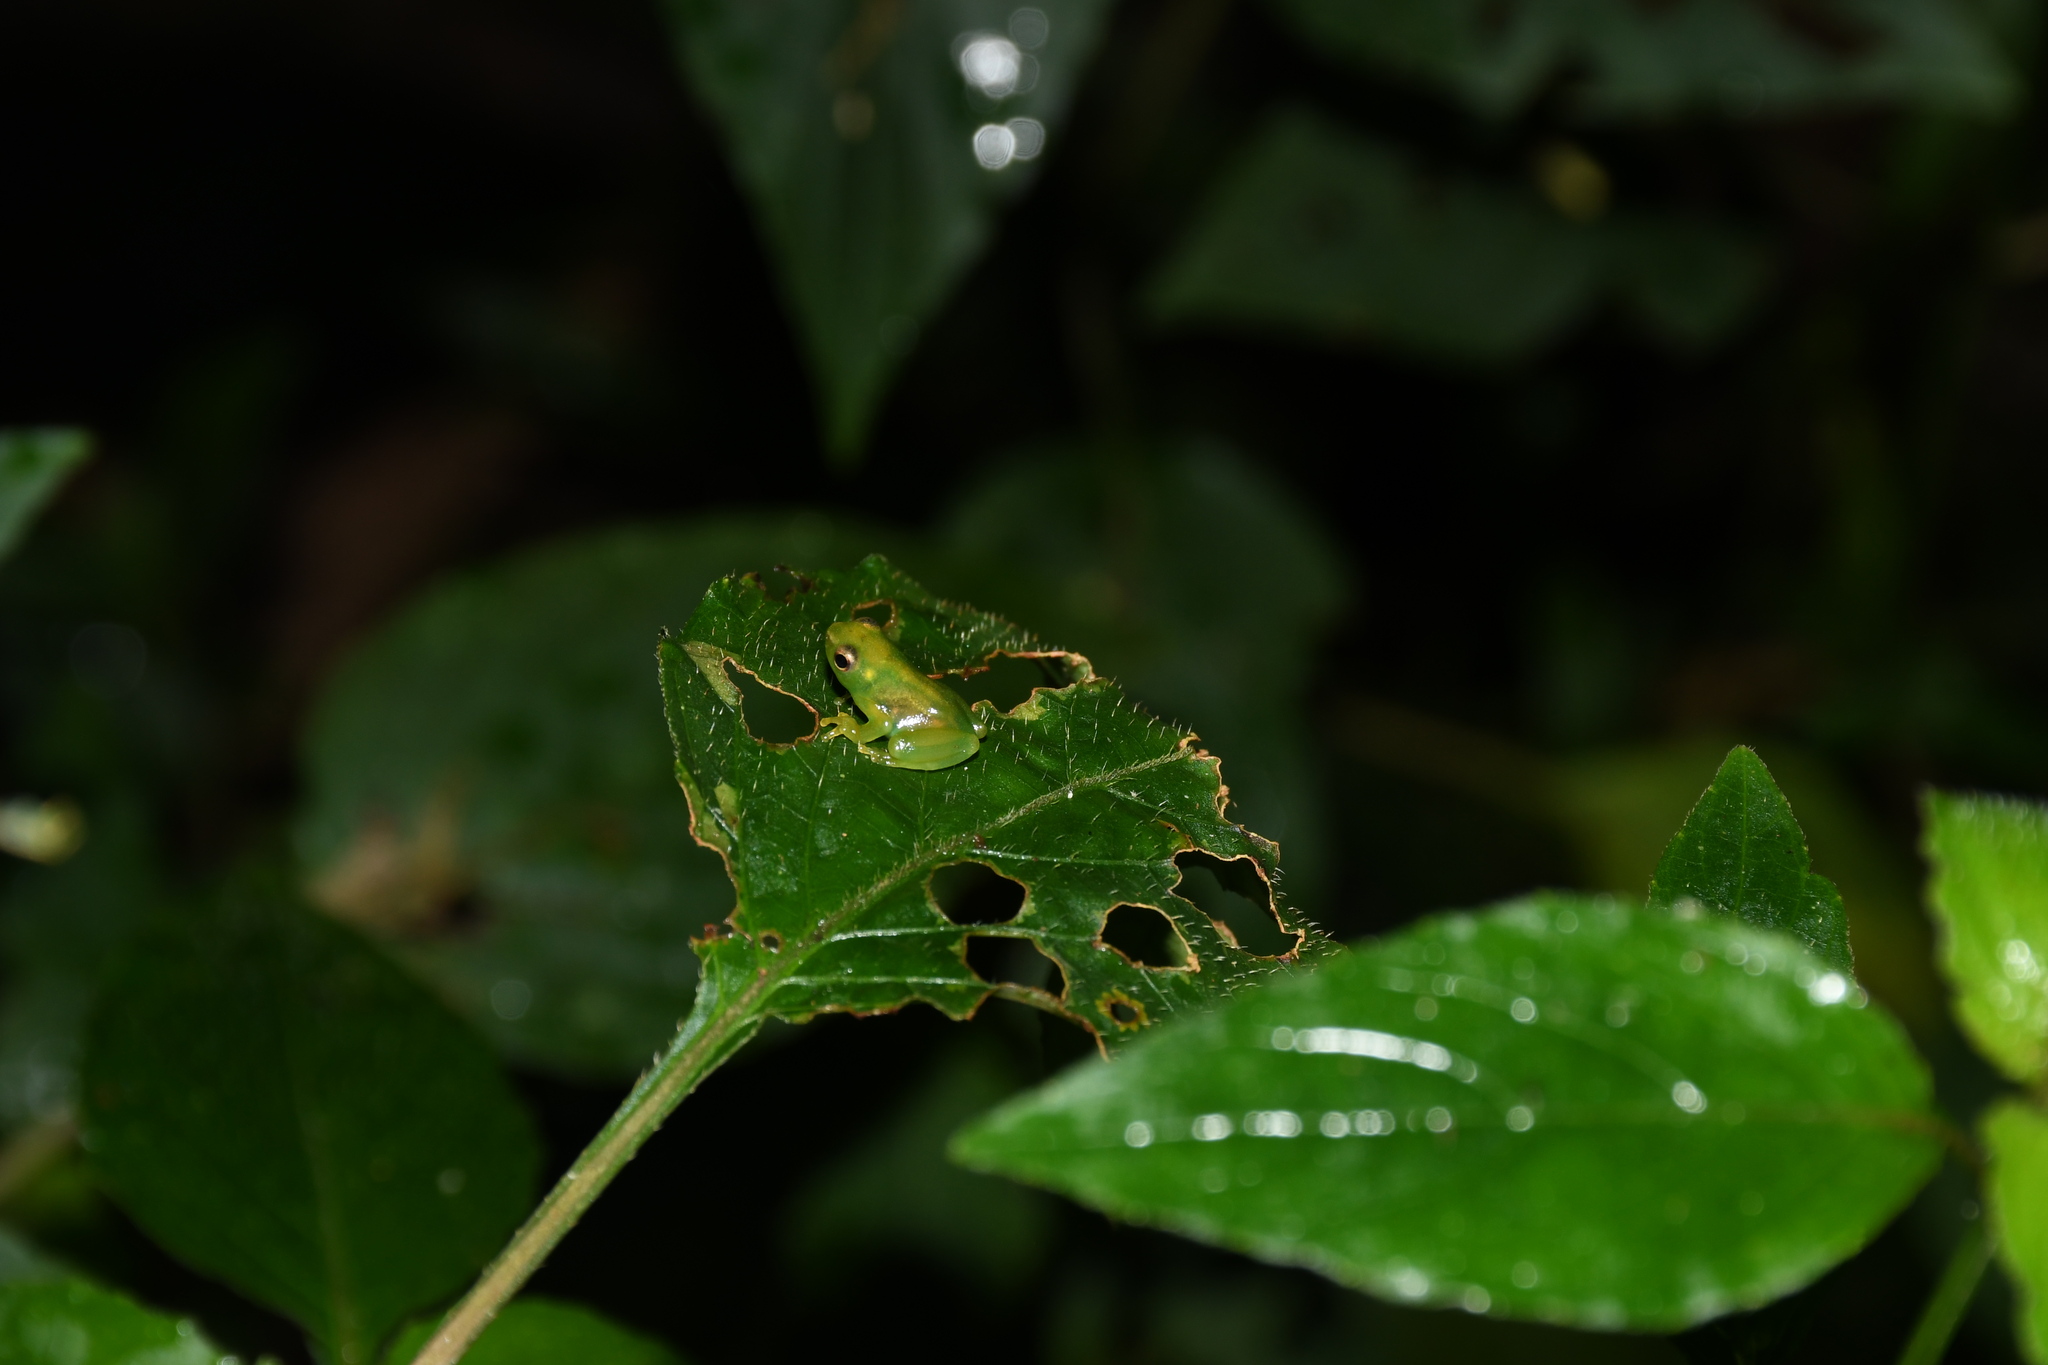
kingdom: Animalia
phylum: Chordata
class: Amphibia
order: Anura
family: Hylidae
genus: Sphaenorhynchus
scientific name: Sphaenorhynchus lacteus
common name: Orinoco lime treefrog
